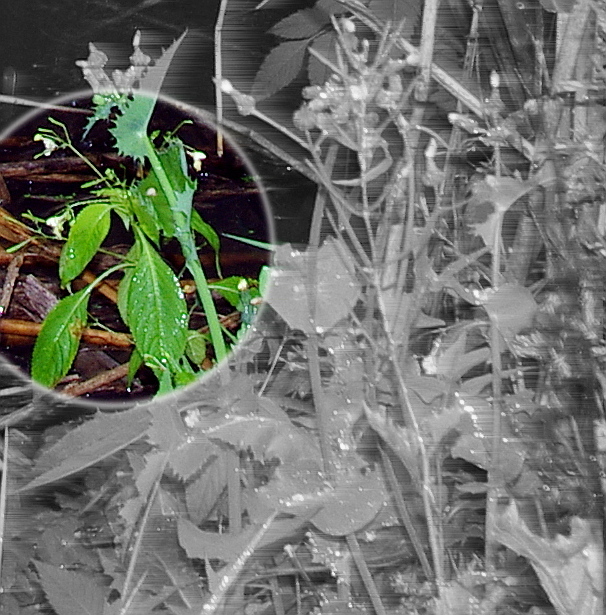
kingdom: Plantae
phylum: Tracheophyta
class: Magnoliopsida
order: Ericales
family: Balsaminaceae
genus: Impatiens
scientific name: Impatiens parviflora
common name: Small balsam
